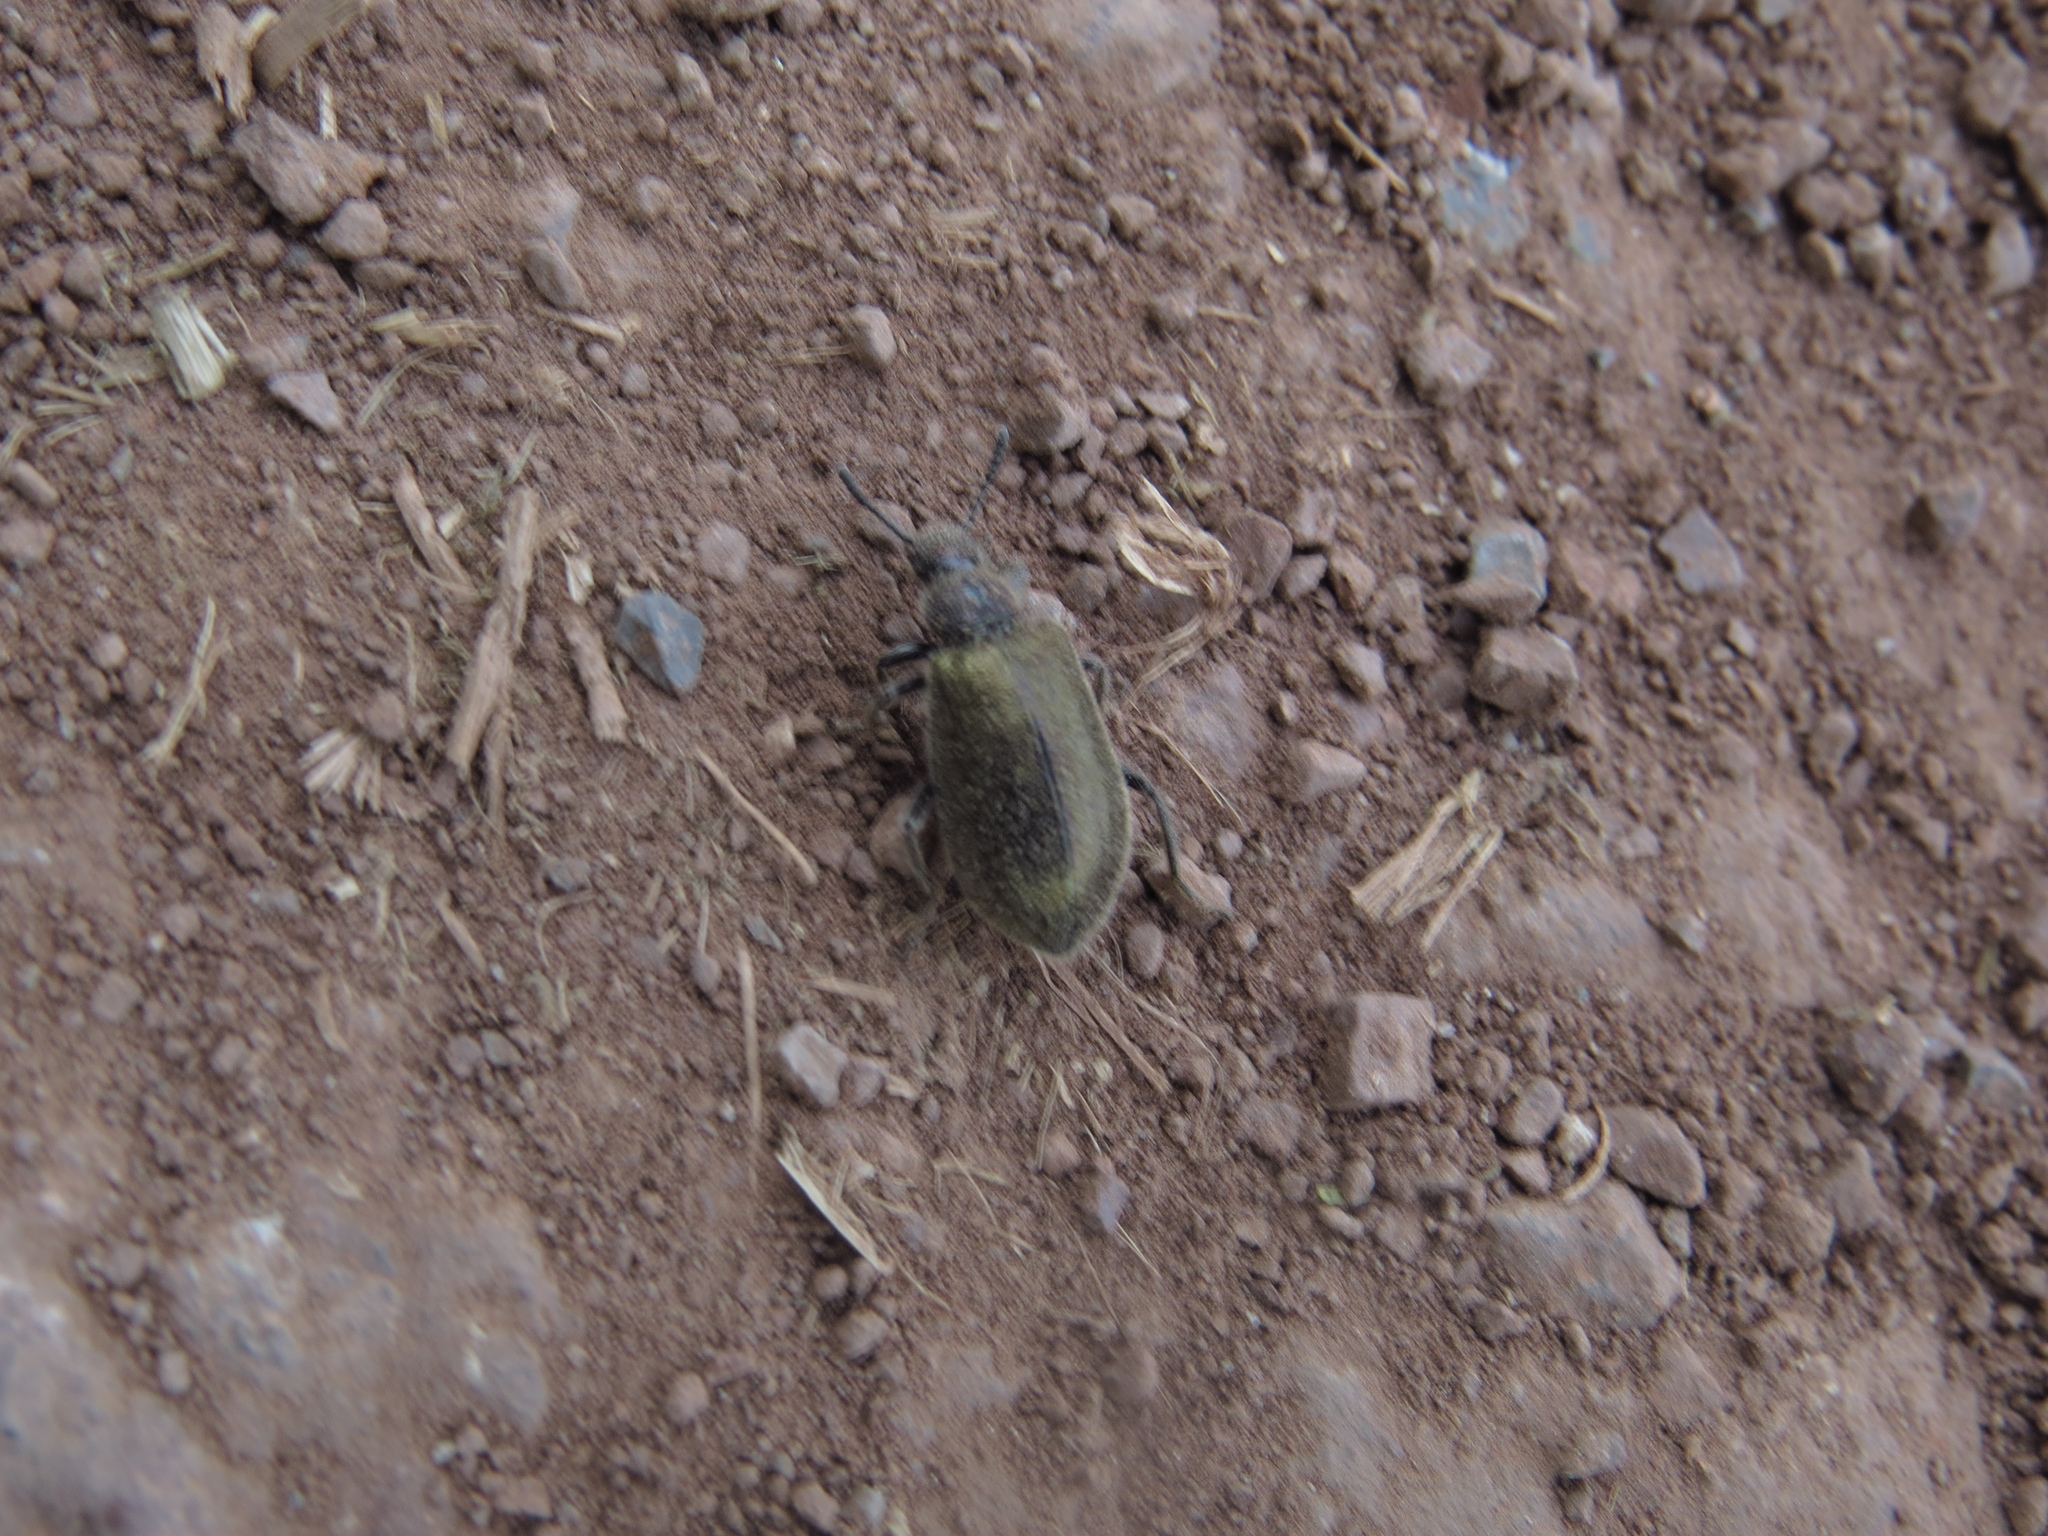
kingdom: Animalia
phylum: Arthropoda
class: Insecta
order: Coleoptera
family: Tenebrionidae
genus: Lagria
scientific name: Lagria villosa
